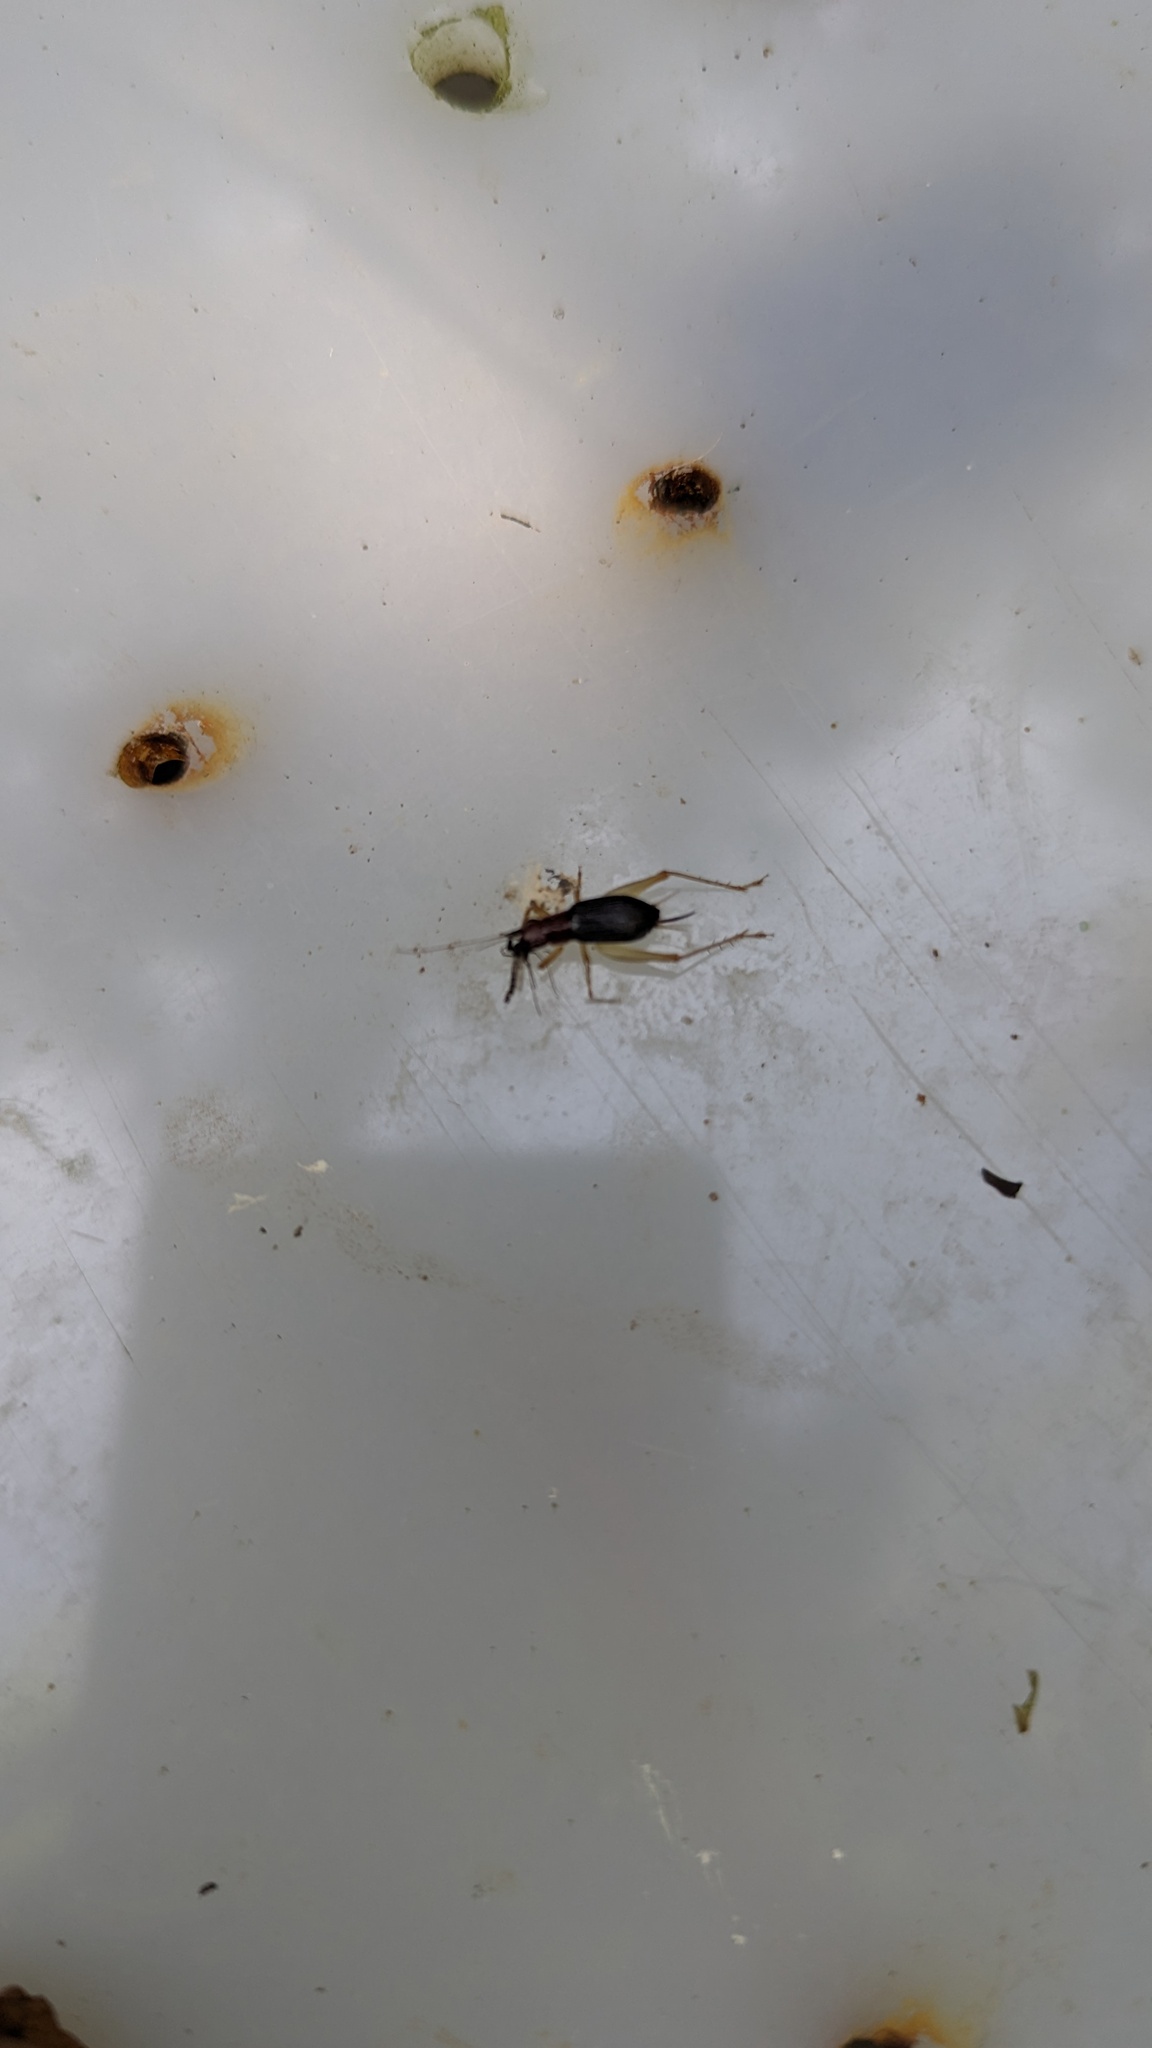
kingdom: Animalia
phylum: Arthropoda
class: Insecta
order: Orthoptera
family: Trigonidiidae
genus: Phyllopalpus
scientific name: Phyllopalpus pulchellus
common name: Handsome trig
